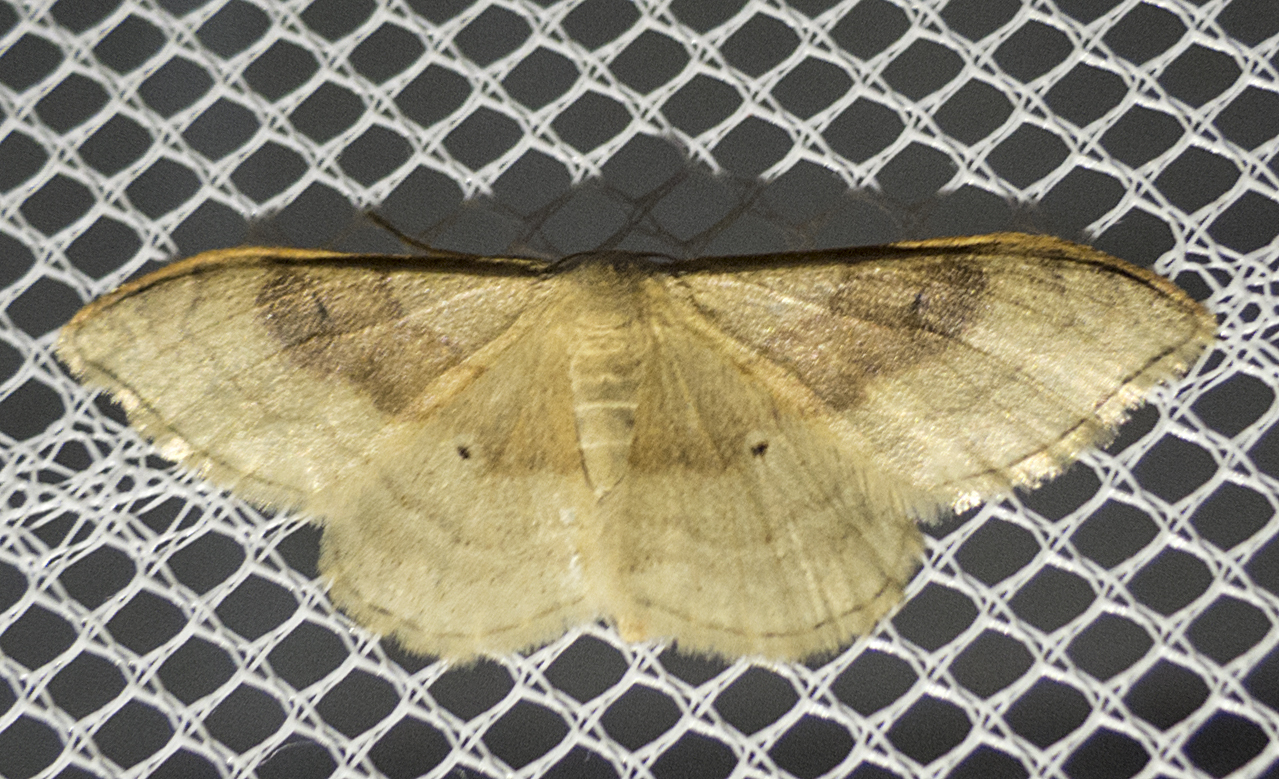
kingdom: Animalia
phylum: Arthropoda
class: Insecta
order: Lepidoptera
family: Geometridae
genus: Idaea
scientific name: Idaea degeneraria
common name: Portland ribbon wave
